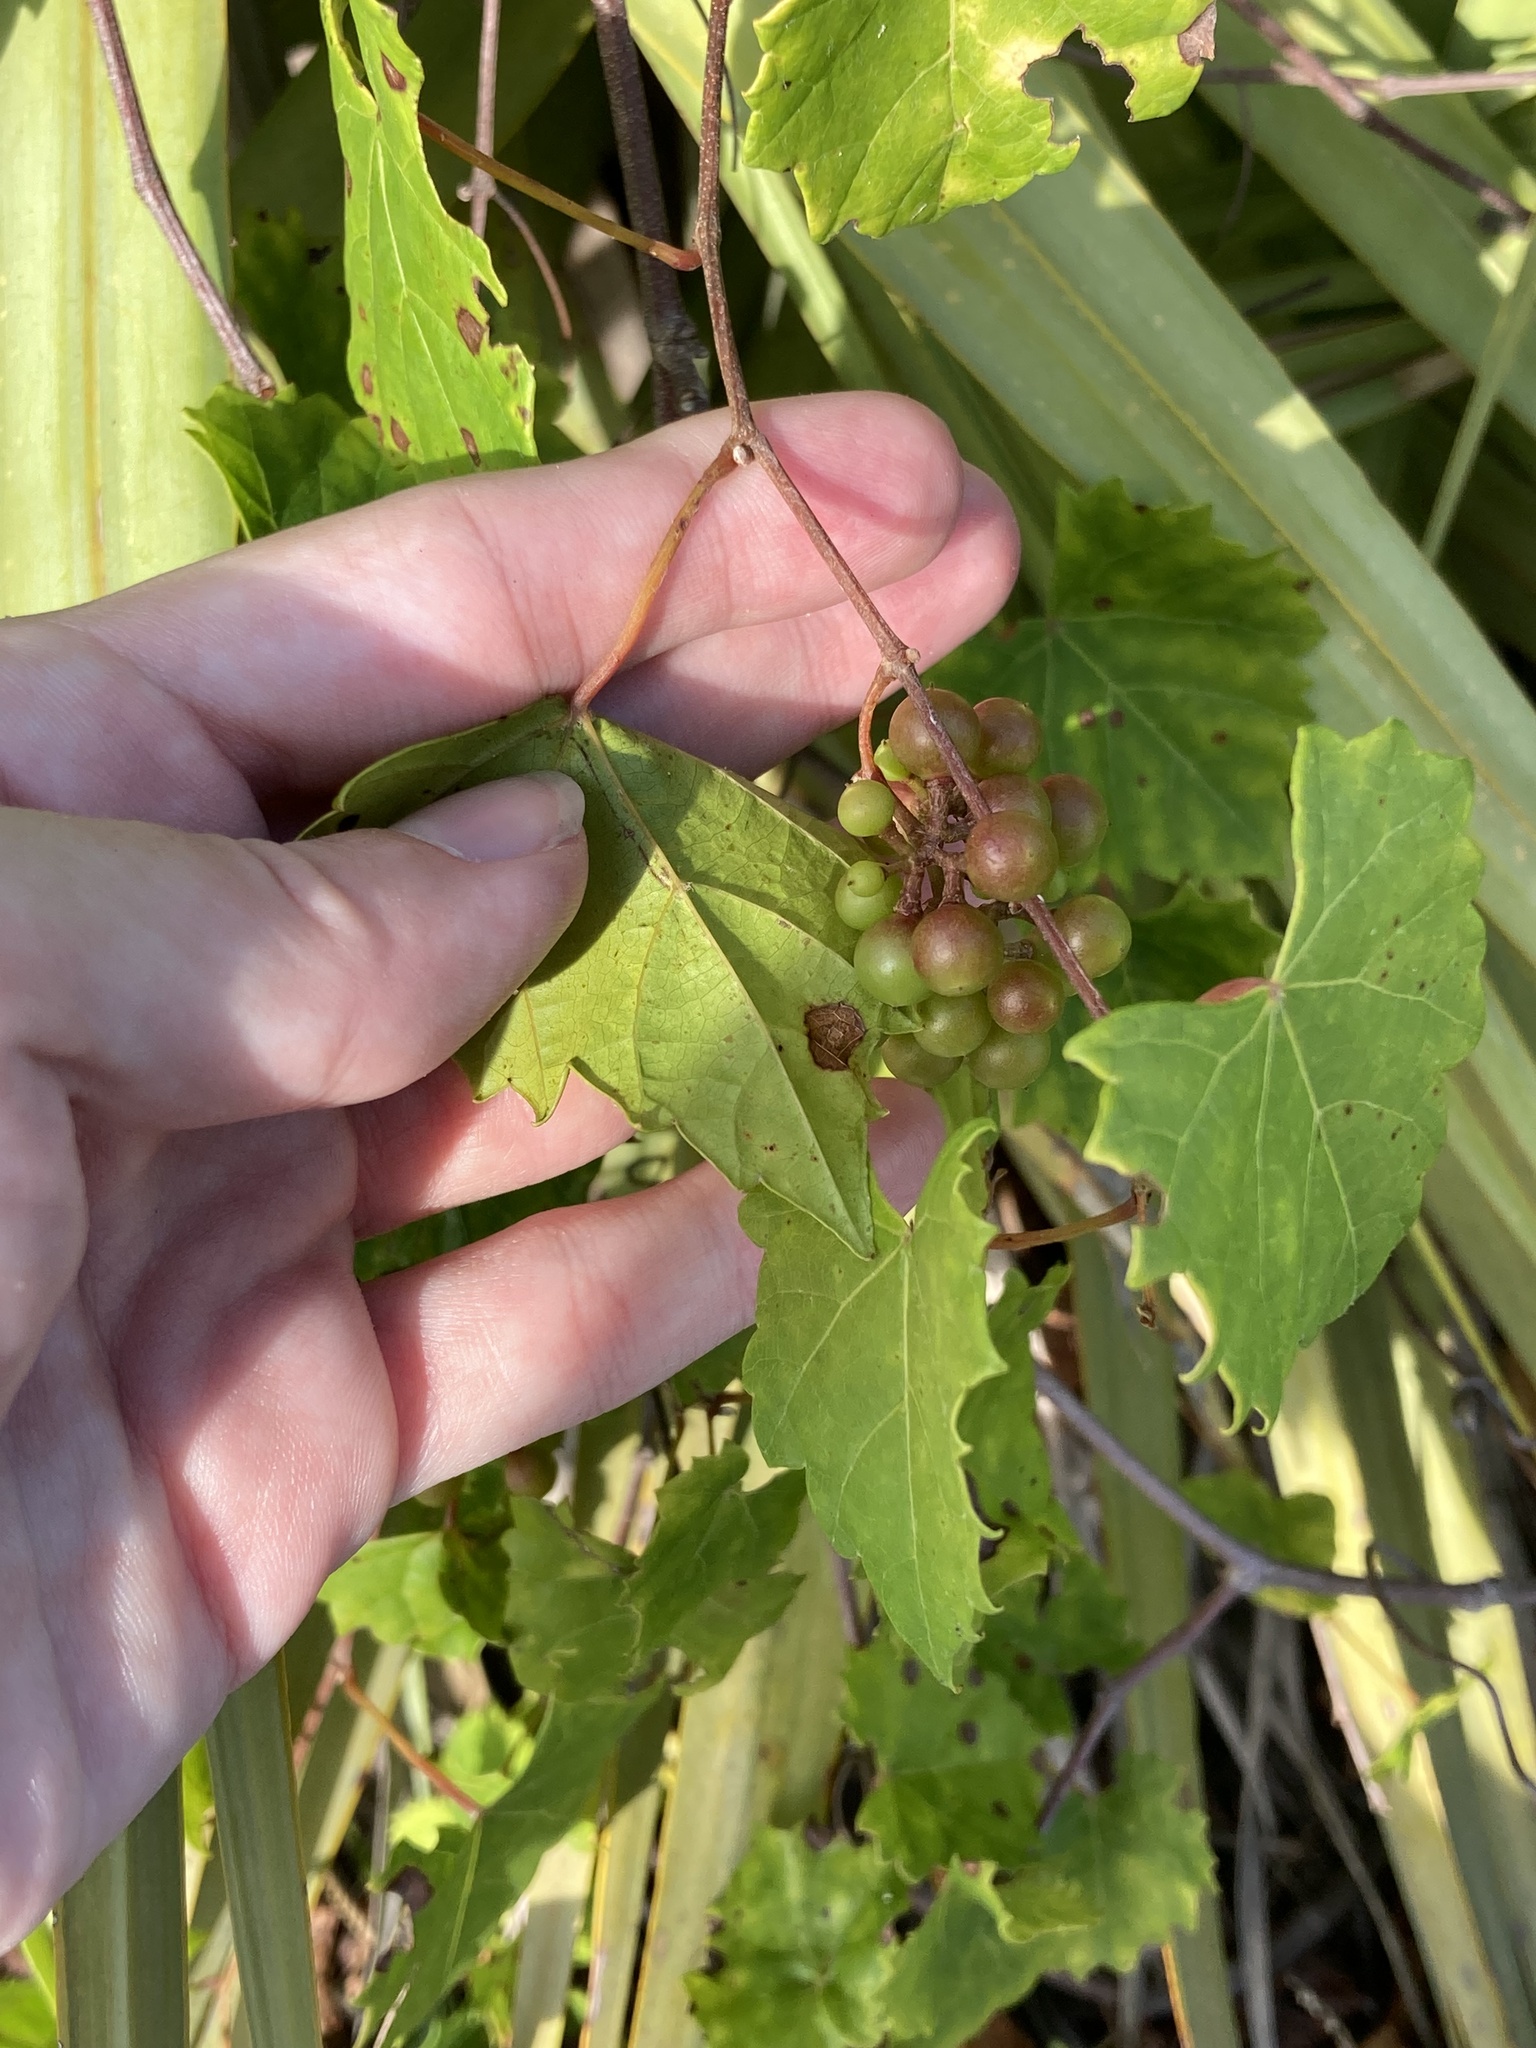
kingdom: Plantae
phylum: Tracheophyta
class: Magnoliopsida
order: Vitales
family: Vitaceae
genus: Vitis
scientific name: Vitis rotundifolia
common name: Muscadine grape
